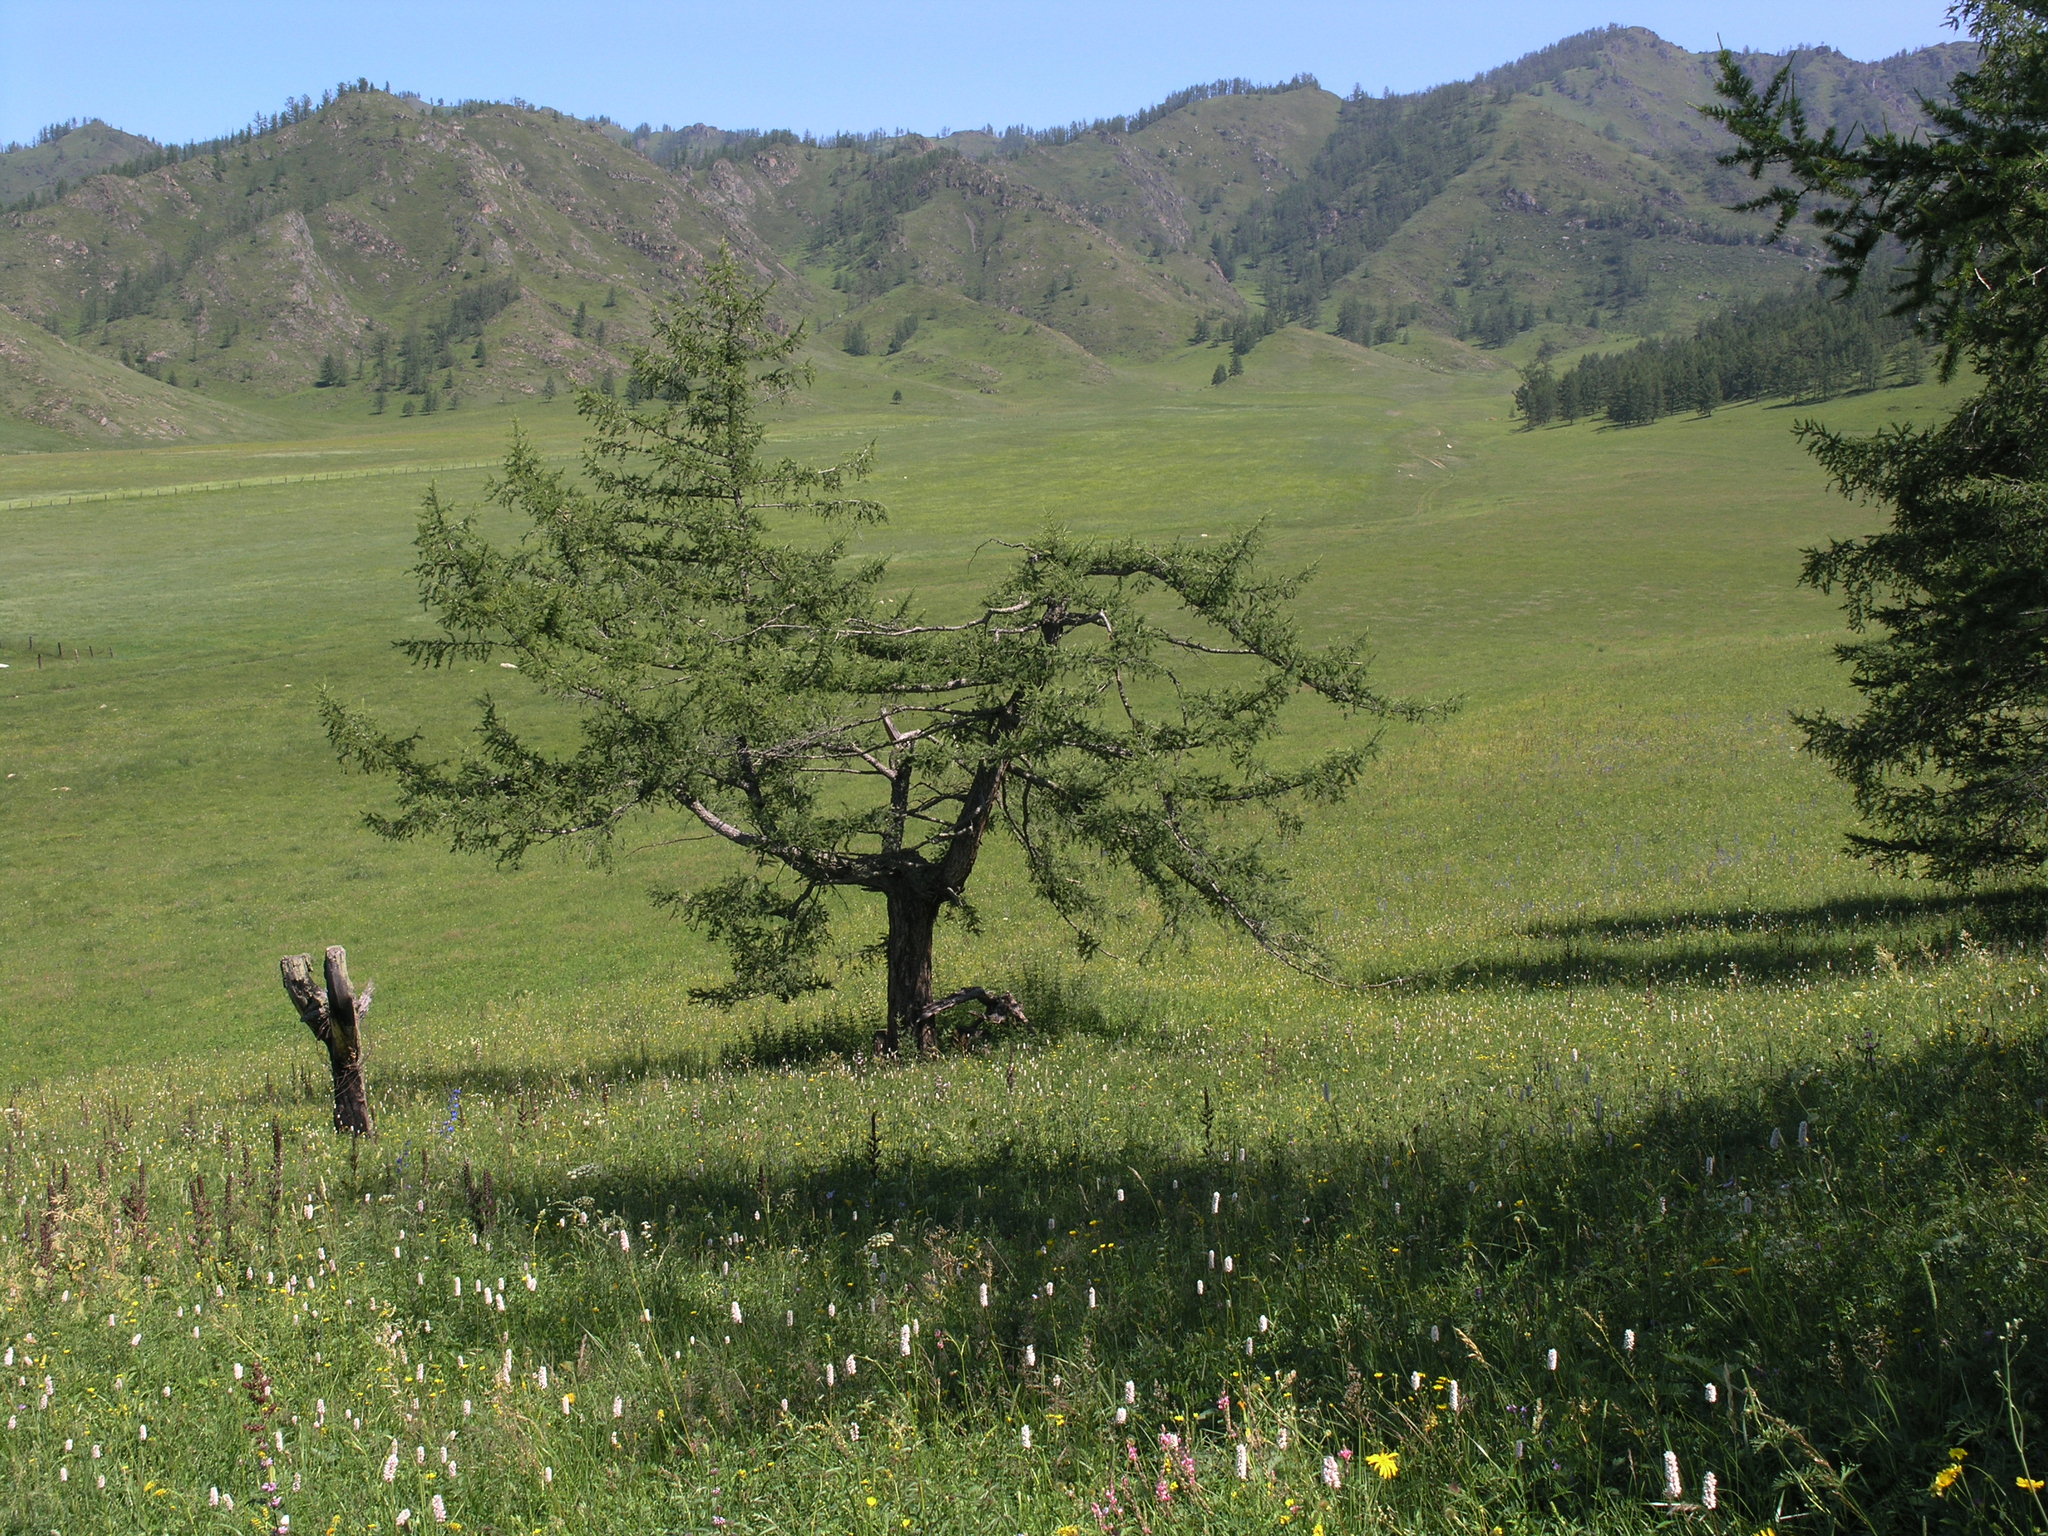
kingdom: Plantae
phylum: Tracheophyta
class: Pinopsida
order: Pinales
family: Pinaceae
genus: Larix
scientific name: Larix sibirica
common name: Siberian larch
